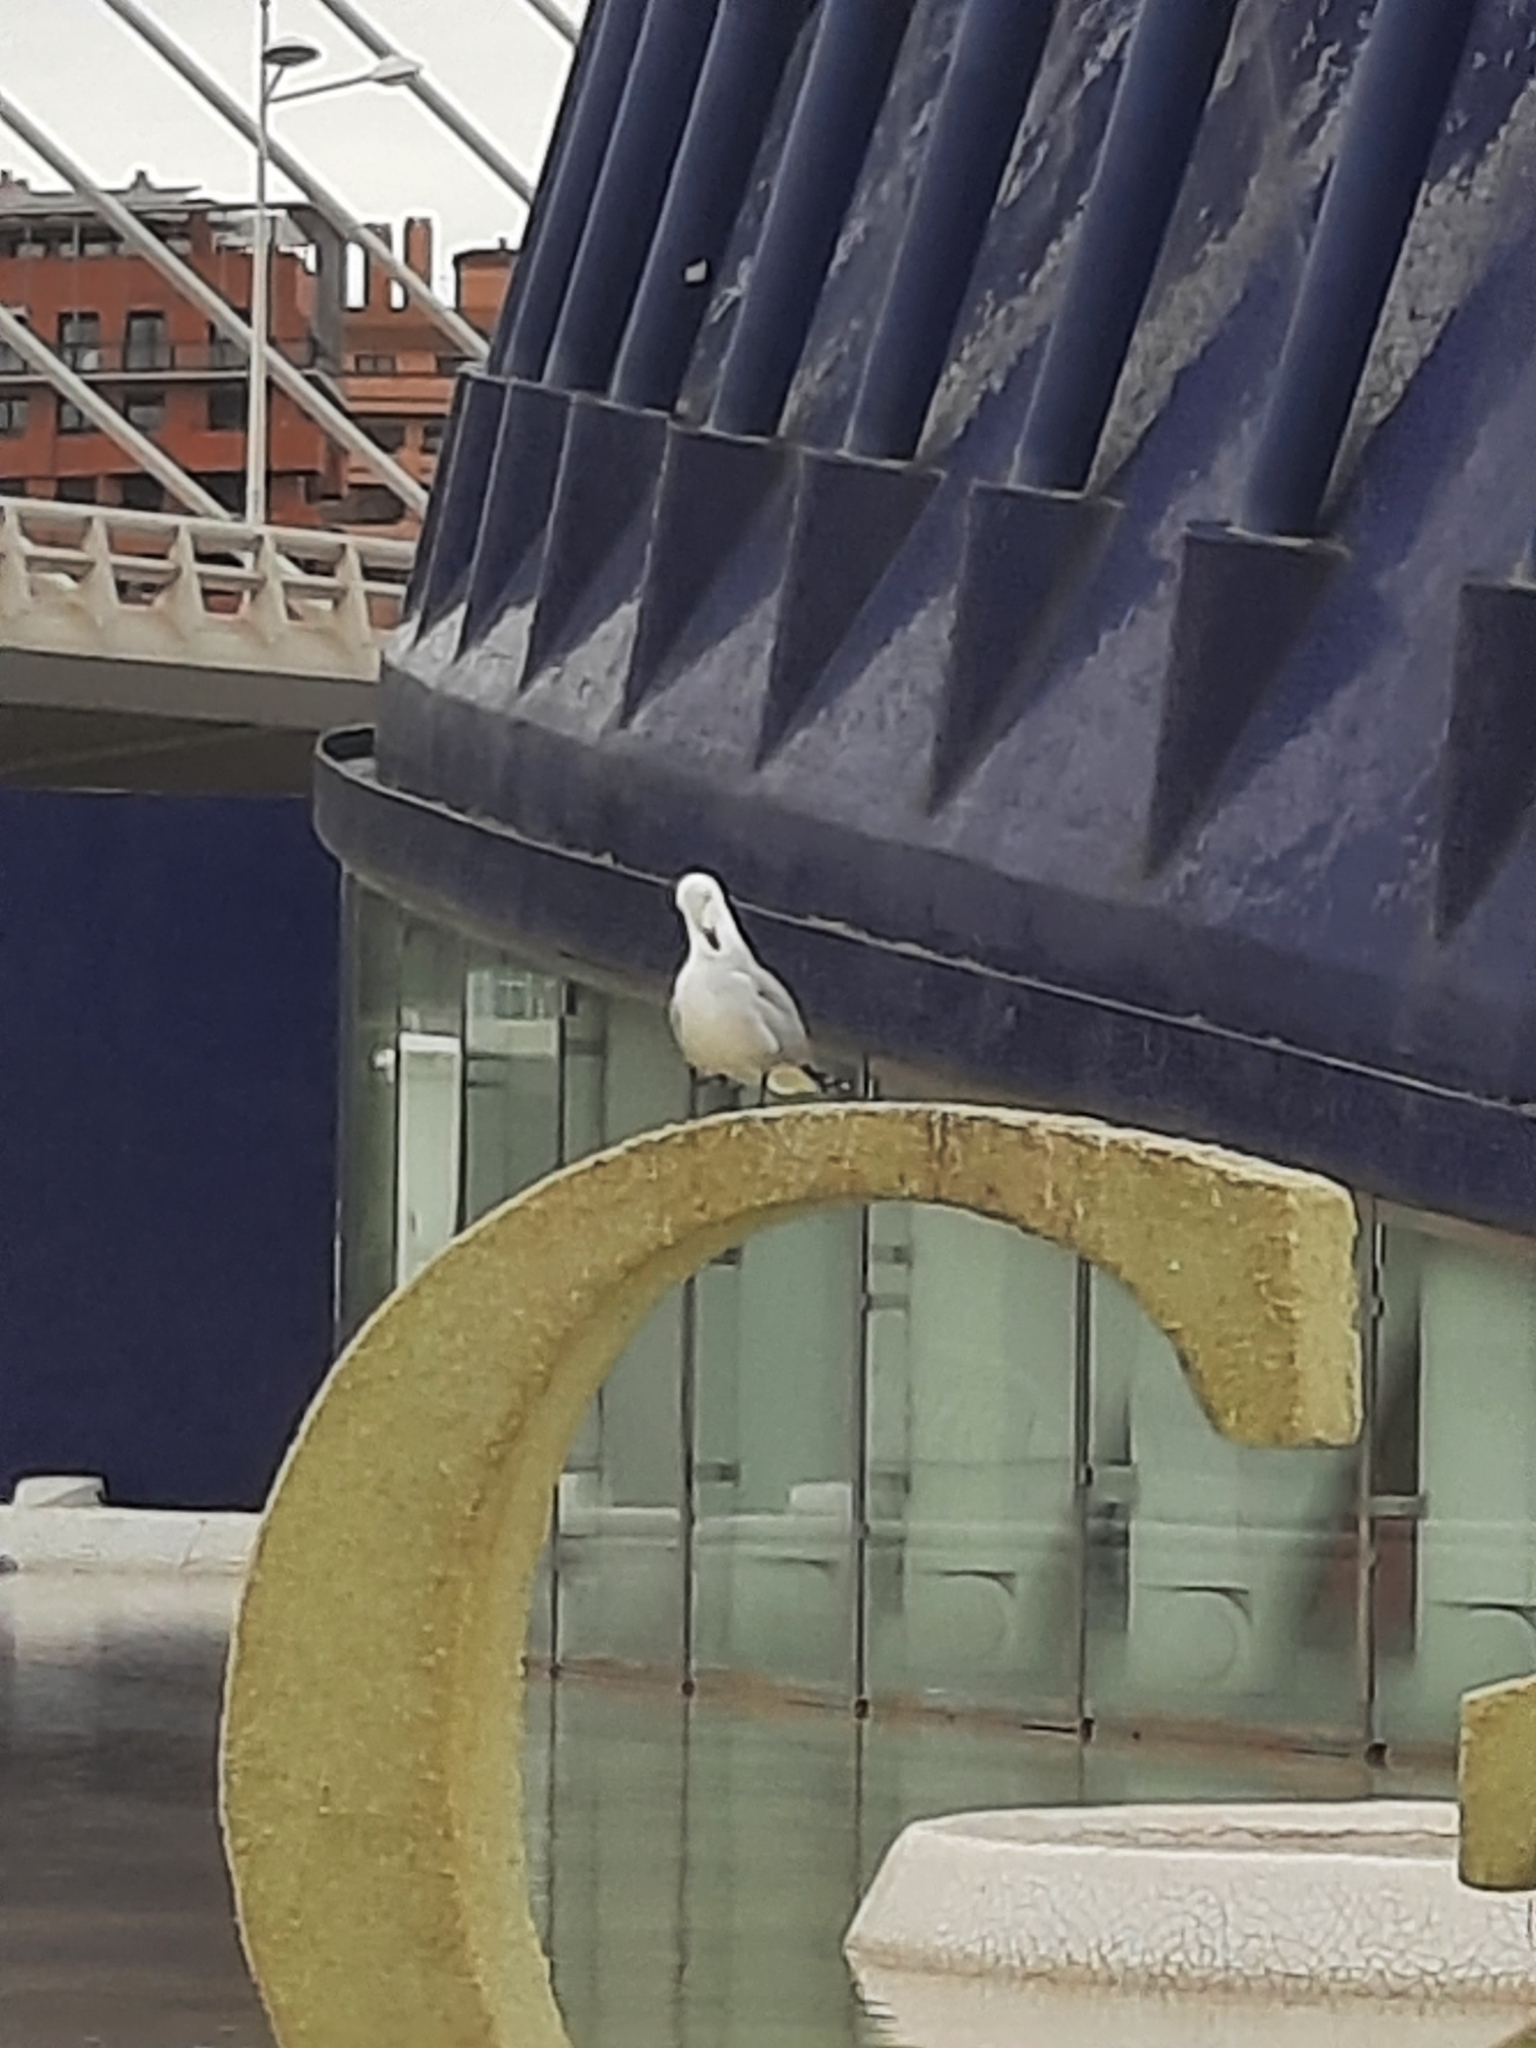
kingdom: Animalia
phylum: Chordata
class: Aves
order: Charadriiformes
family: Laridae
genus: Ichthyaetus
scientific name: Ichthyaetus audouinii
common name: Audouin's gull
